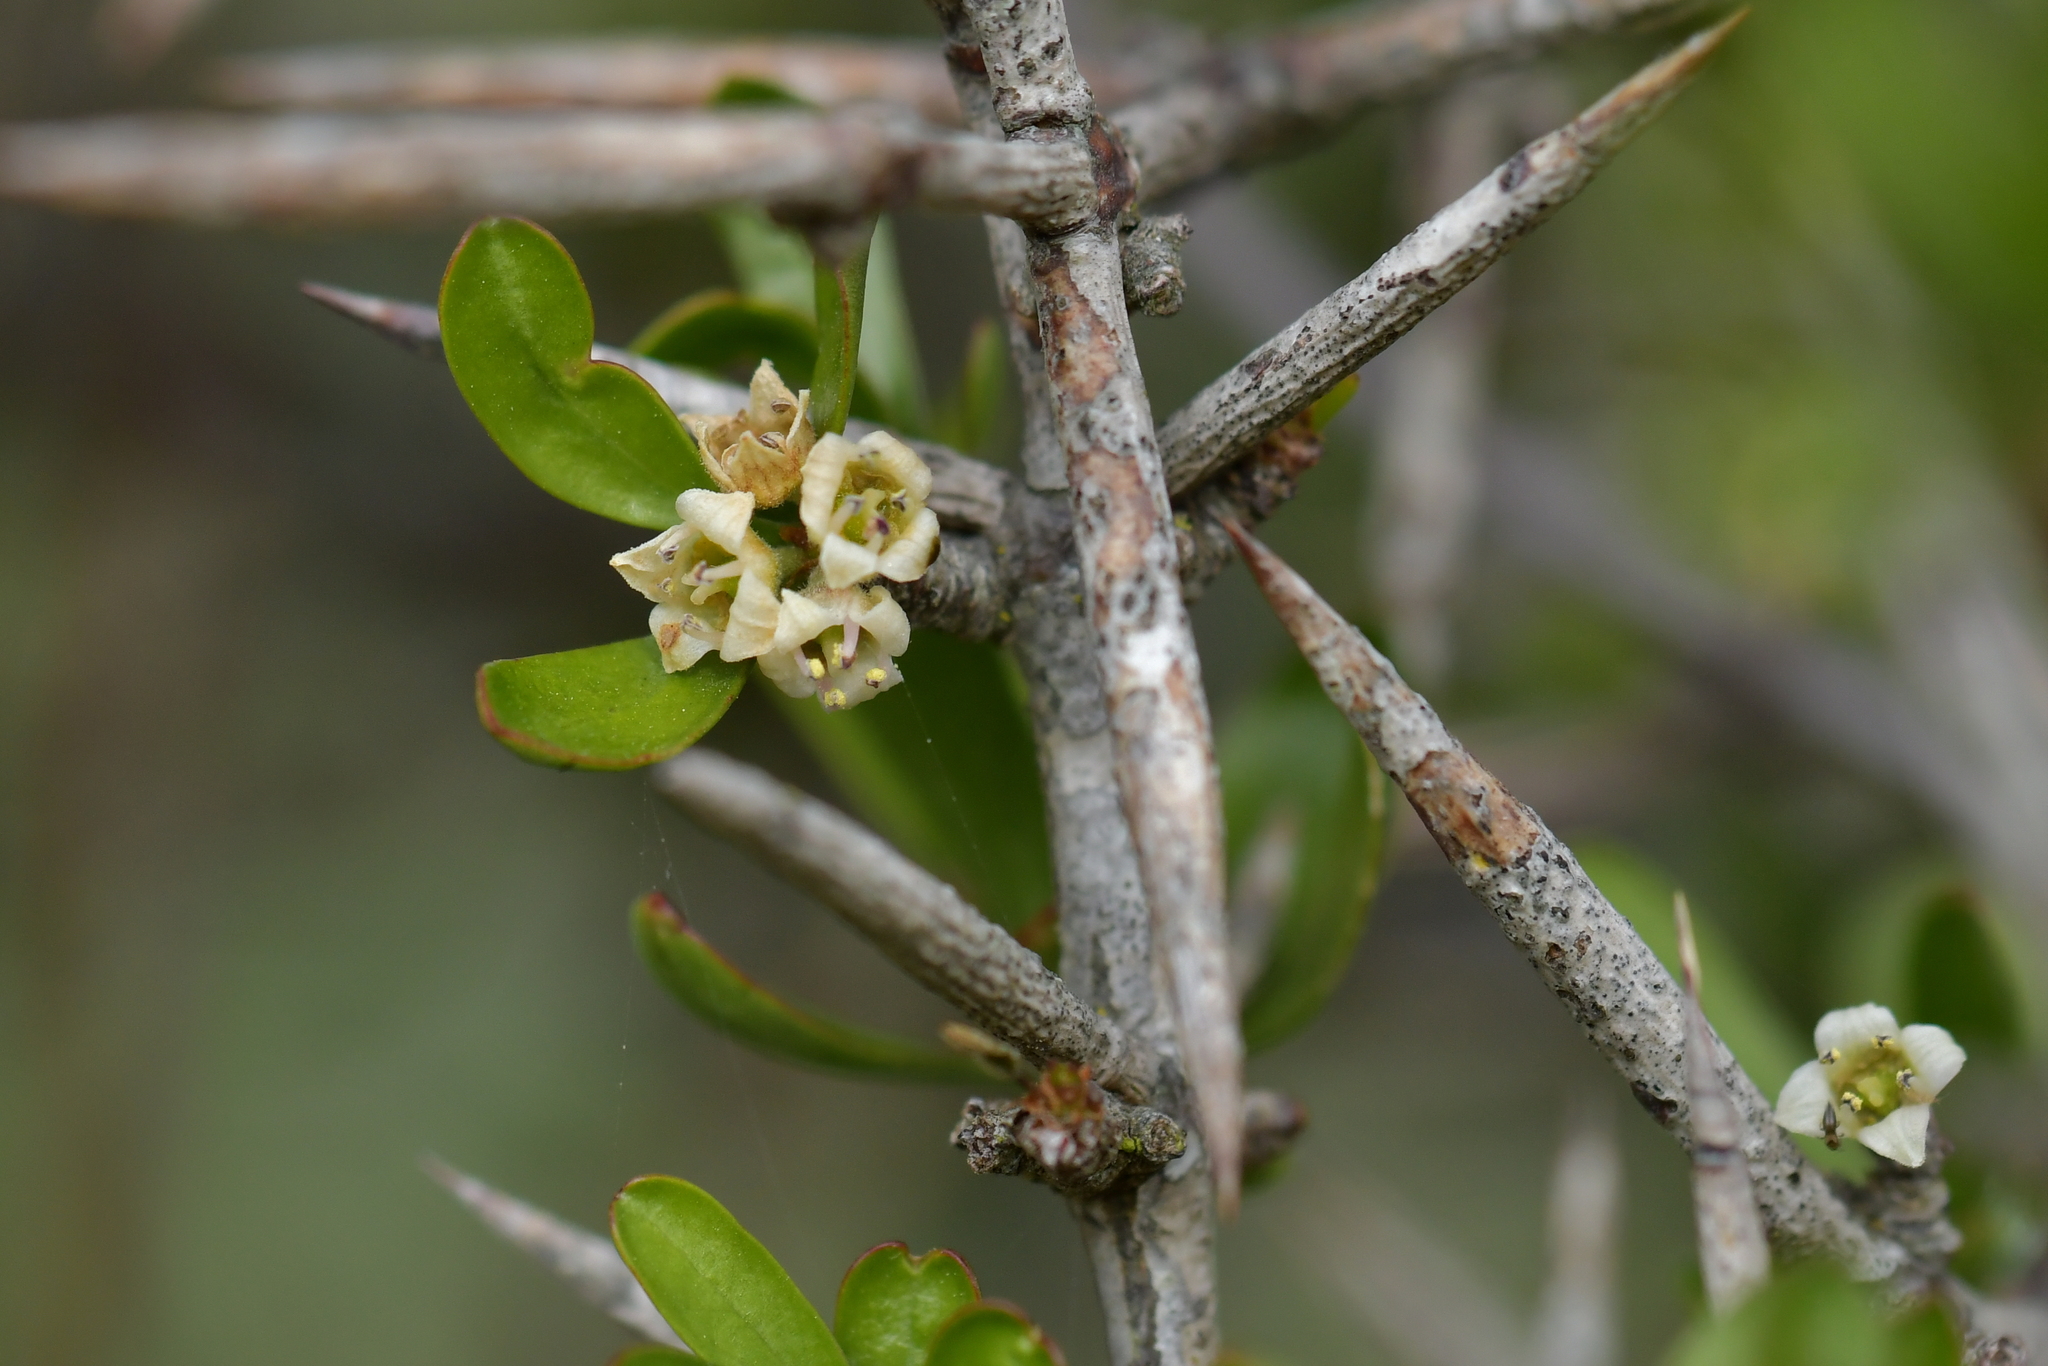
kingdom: Plantae
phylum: Tracheophyta
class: Magnoliopsida
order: Rosales
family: Rhamnaceae
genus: Discaria
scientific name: Discaria toumatou
